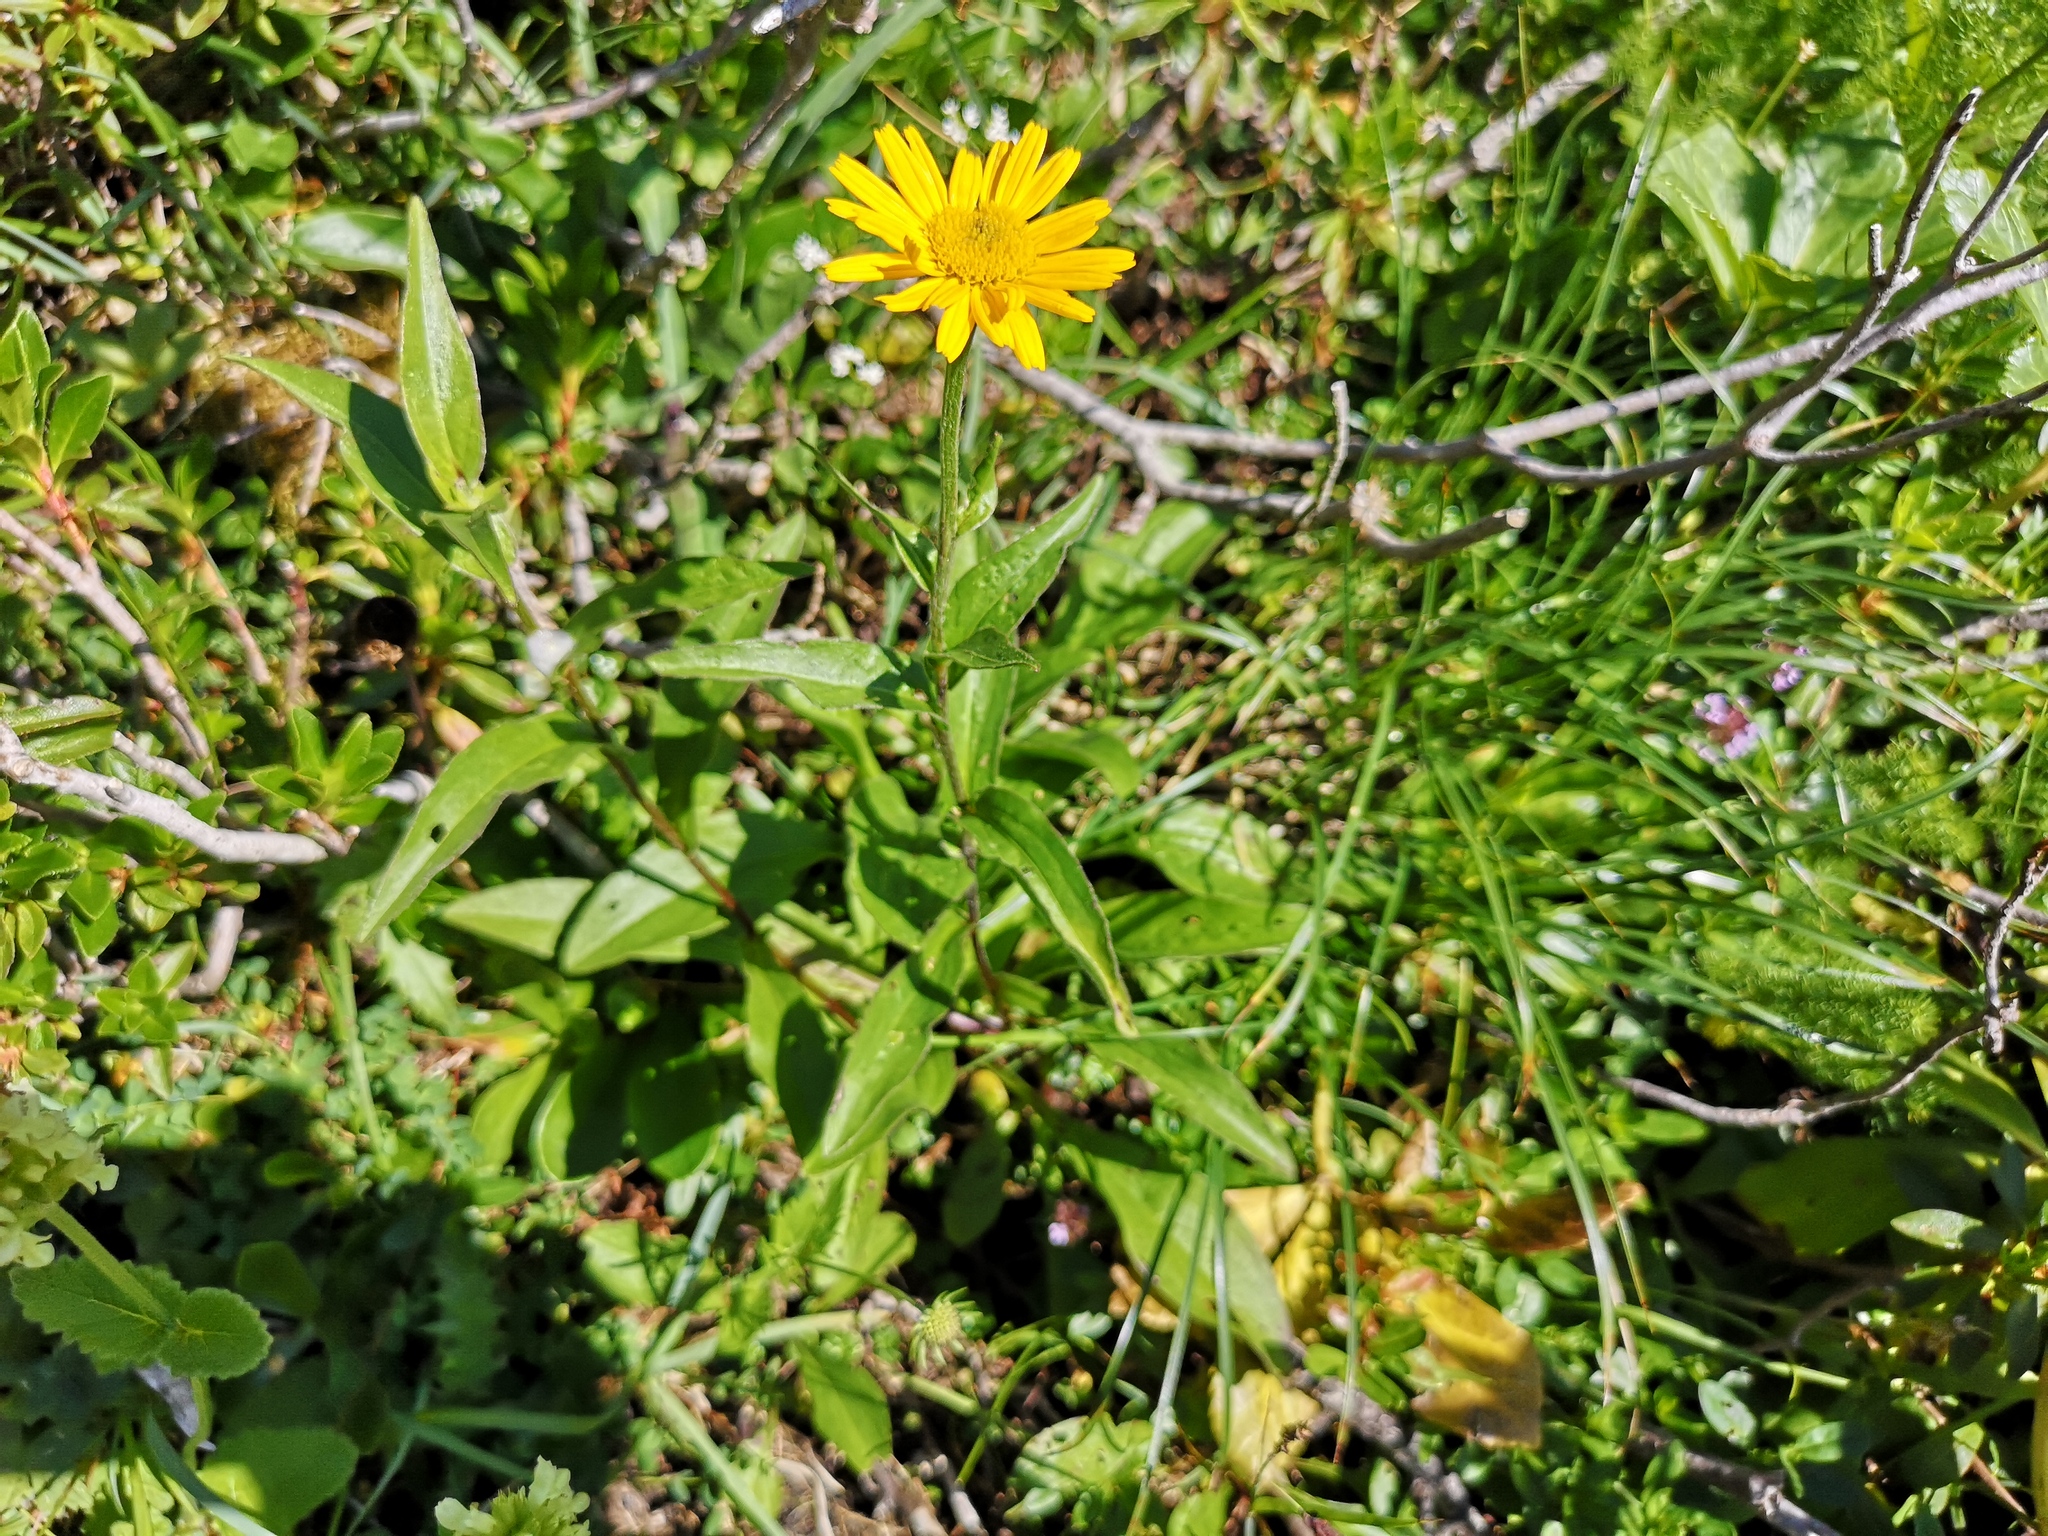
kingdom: Plantae
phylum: Tracheophyta
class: Magnoliopsida
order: Asterales
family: Asteraceae
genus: Buphthalmum
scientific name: Buphthalmum salicifolium
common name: Willow-leaved yellow-oxeye
